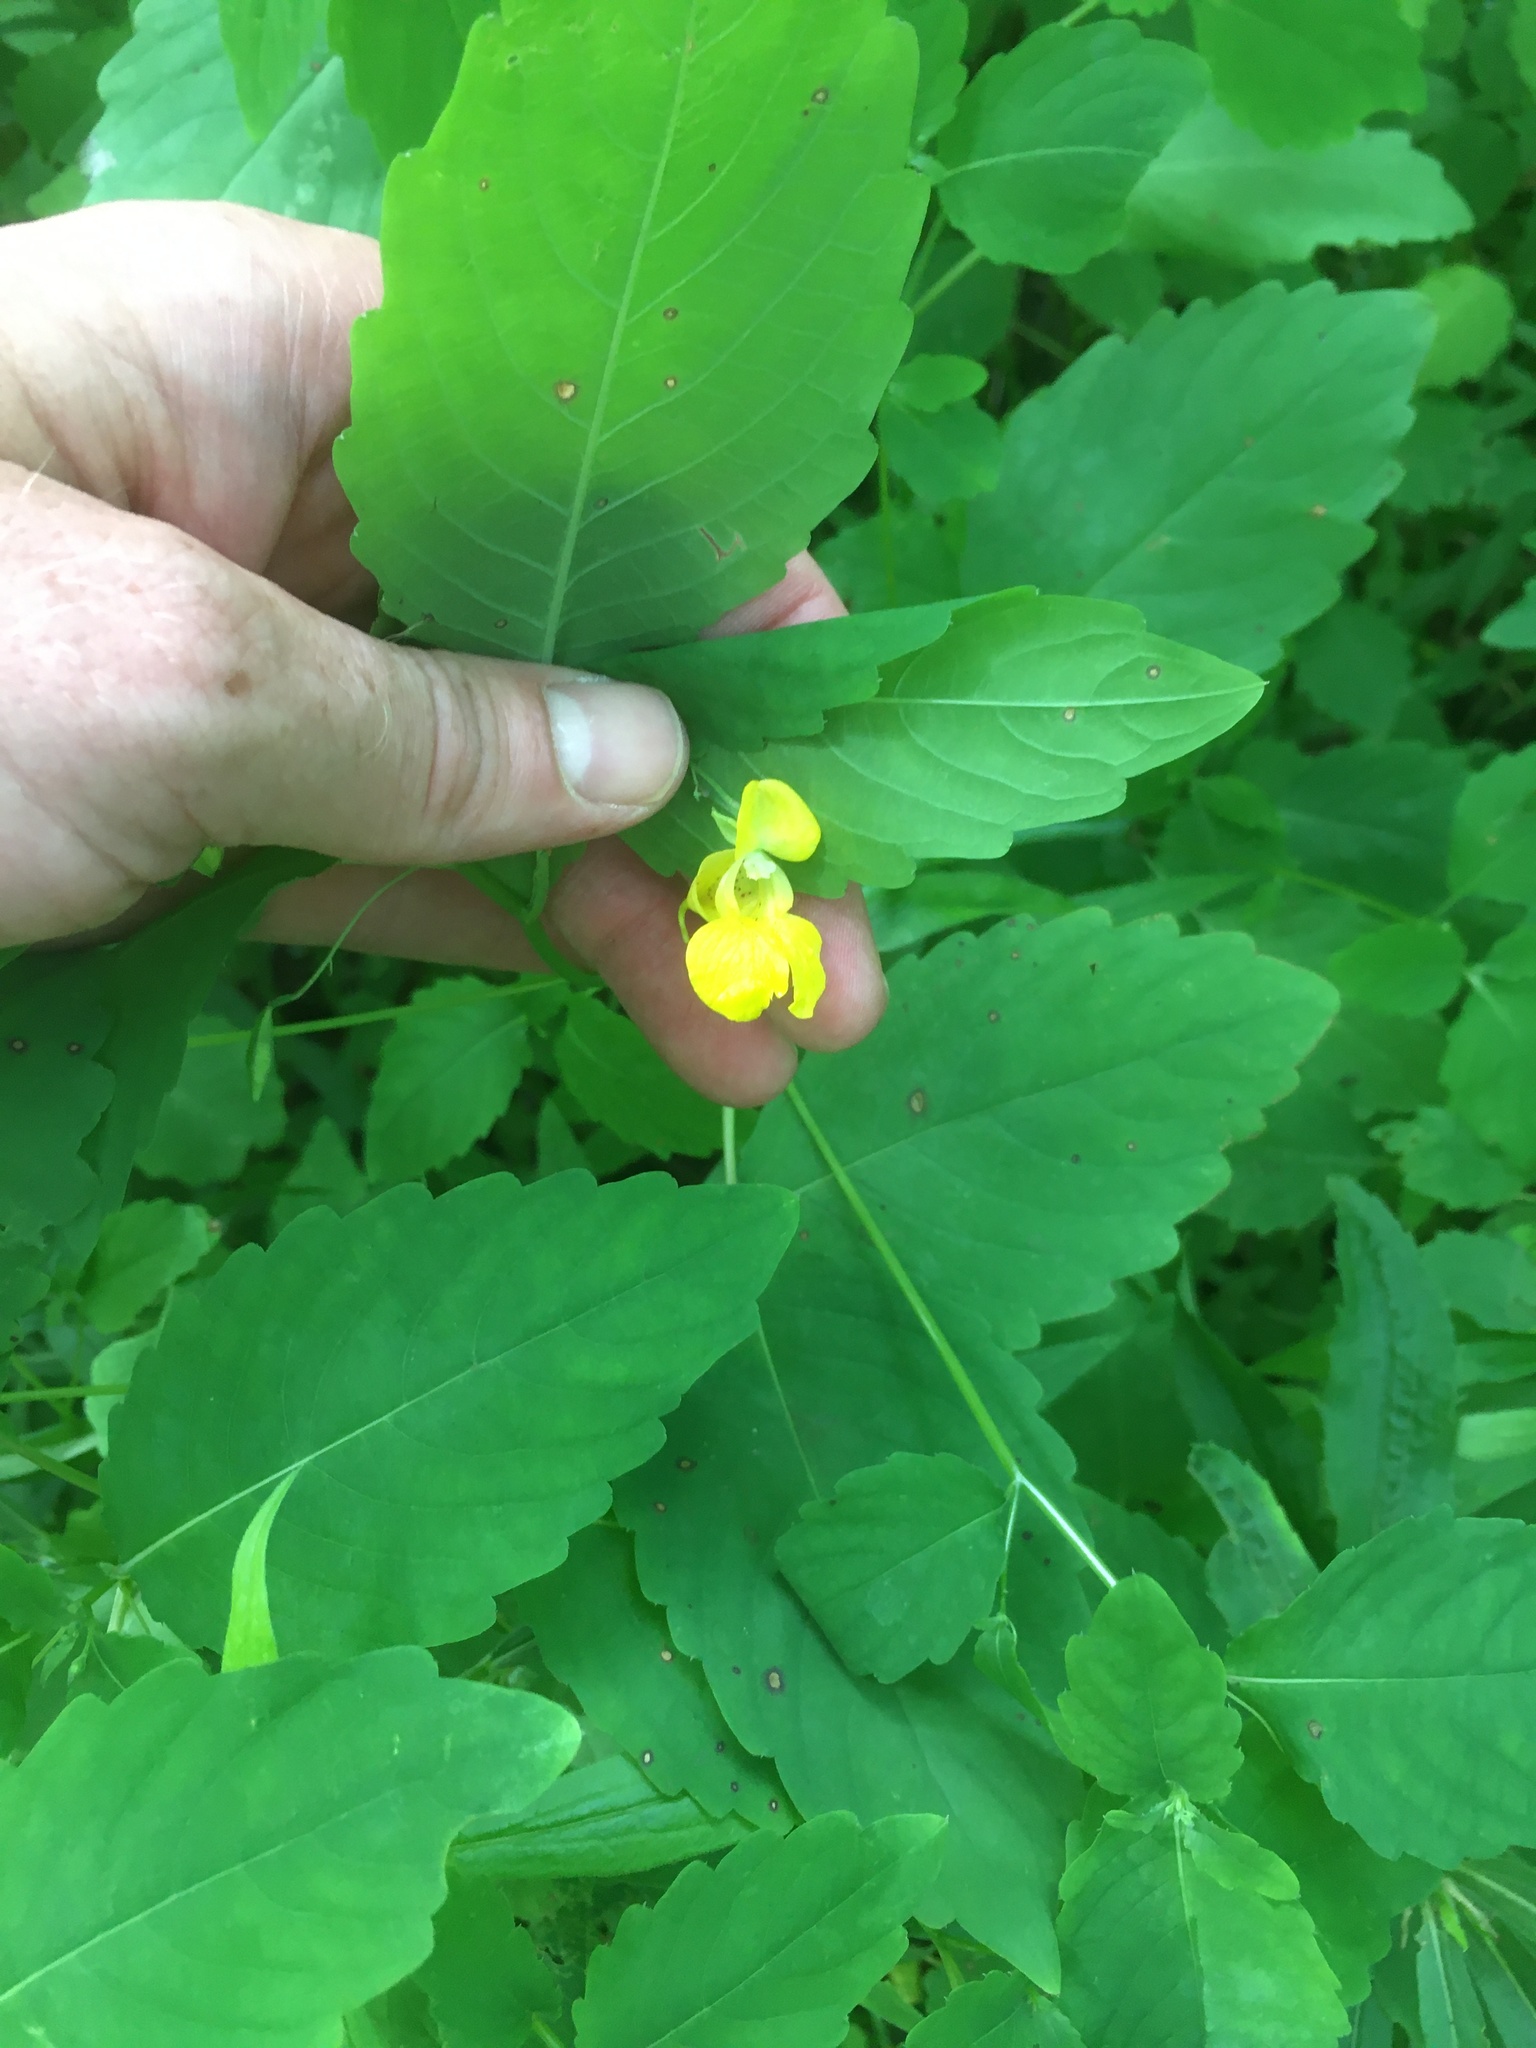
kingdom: Plantae
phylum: Tracheophyta
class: Magnoliopsida
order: Ericales
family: Balsaminaceae
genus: Impatiens
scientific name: Impatiens pallida
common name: Pale snapweed
